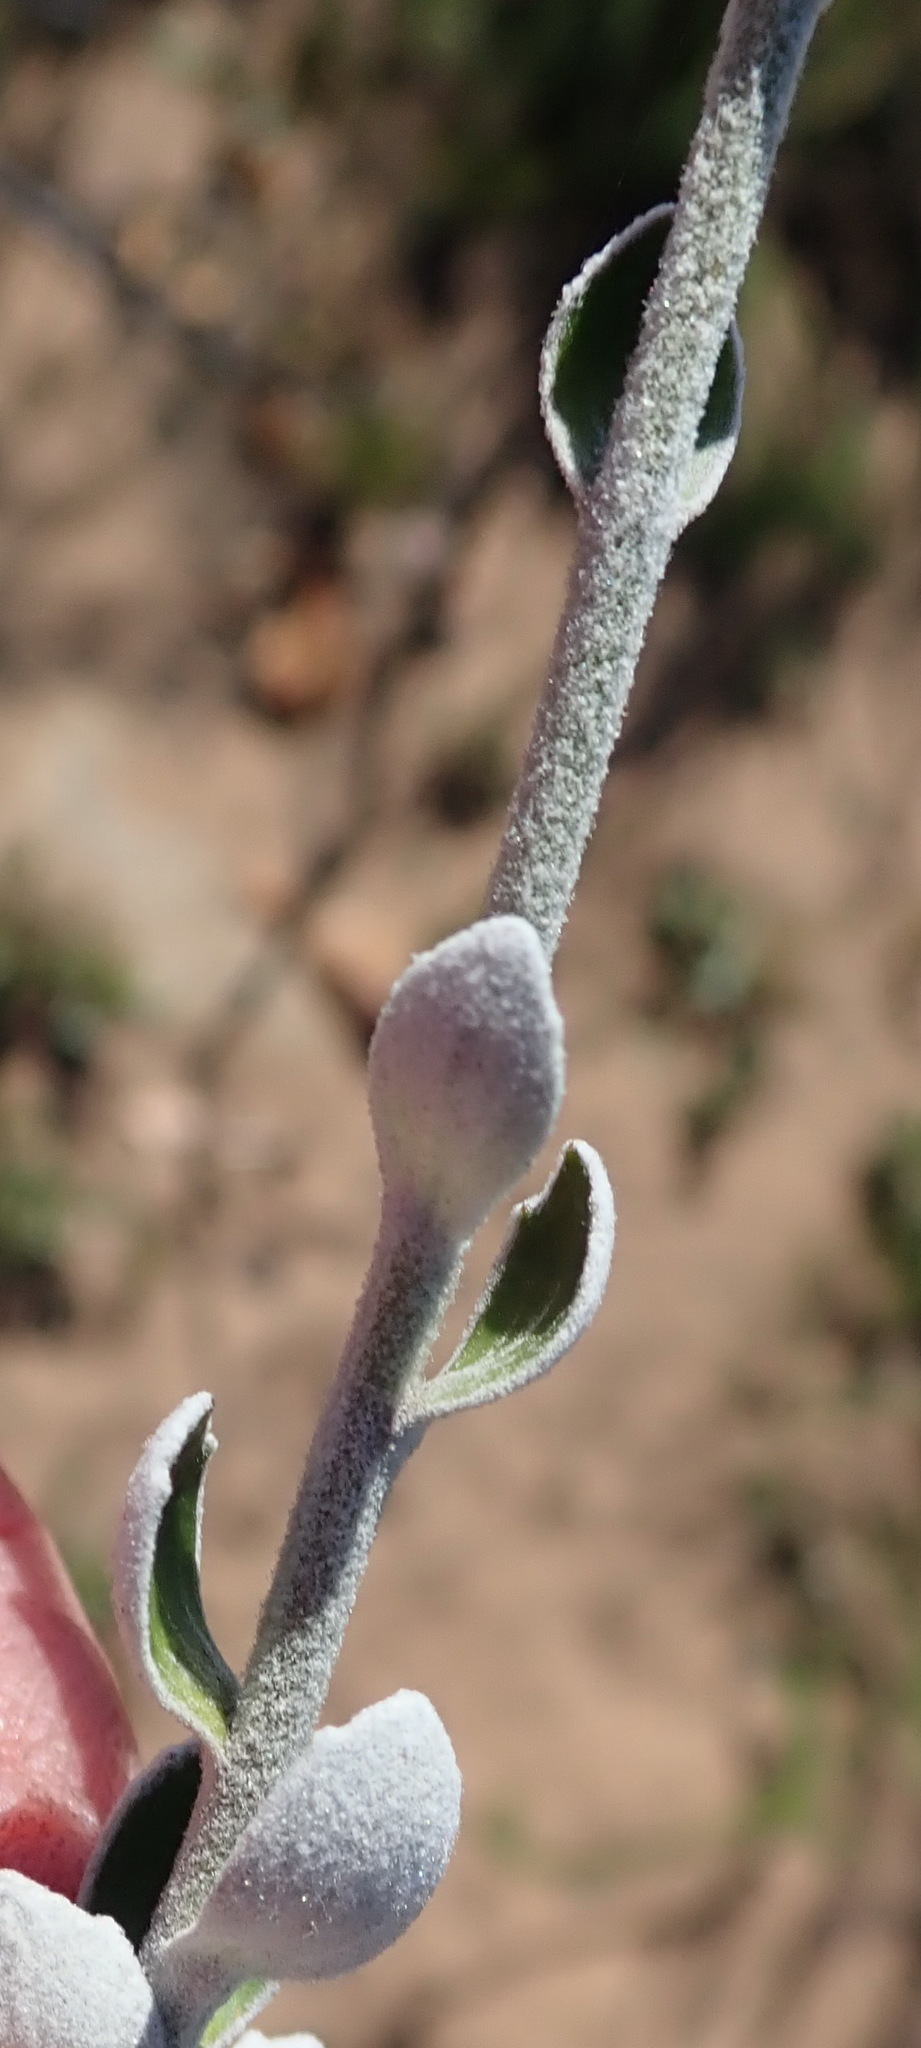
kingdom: Plantae
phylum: Tracheophyta
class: Magnoliopsida
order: Asterales
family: Asteraceae
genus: Senecio
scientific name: Senecio pauciflosculosus
